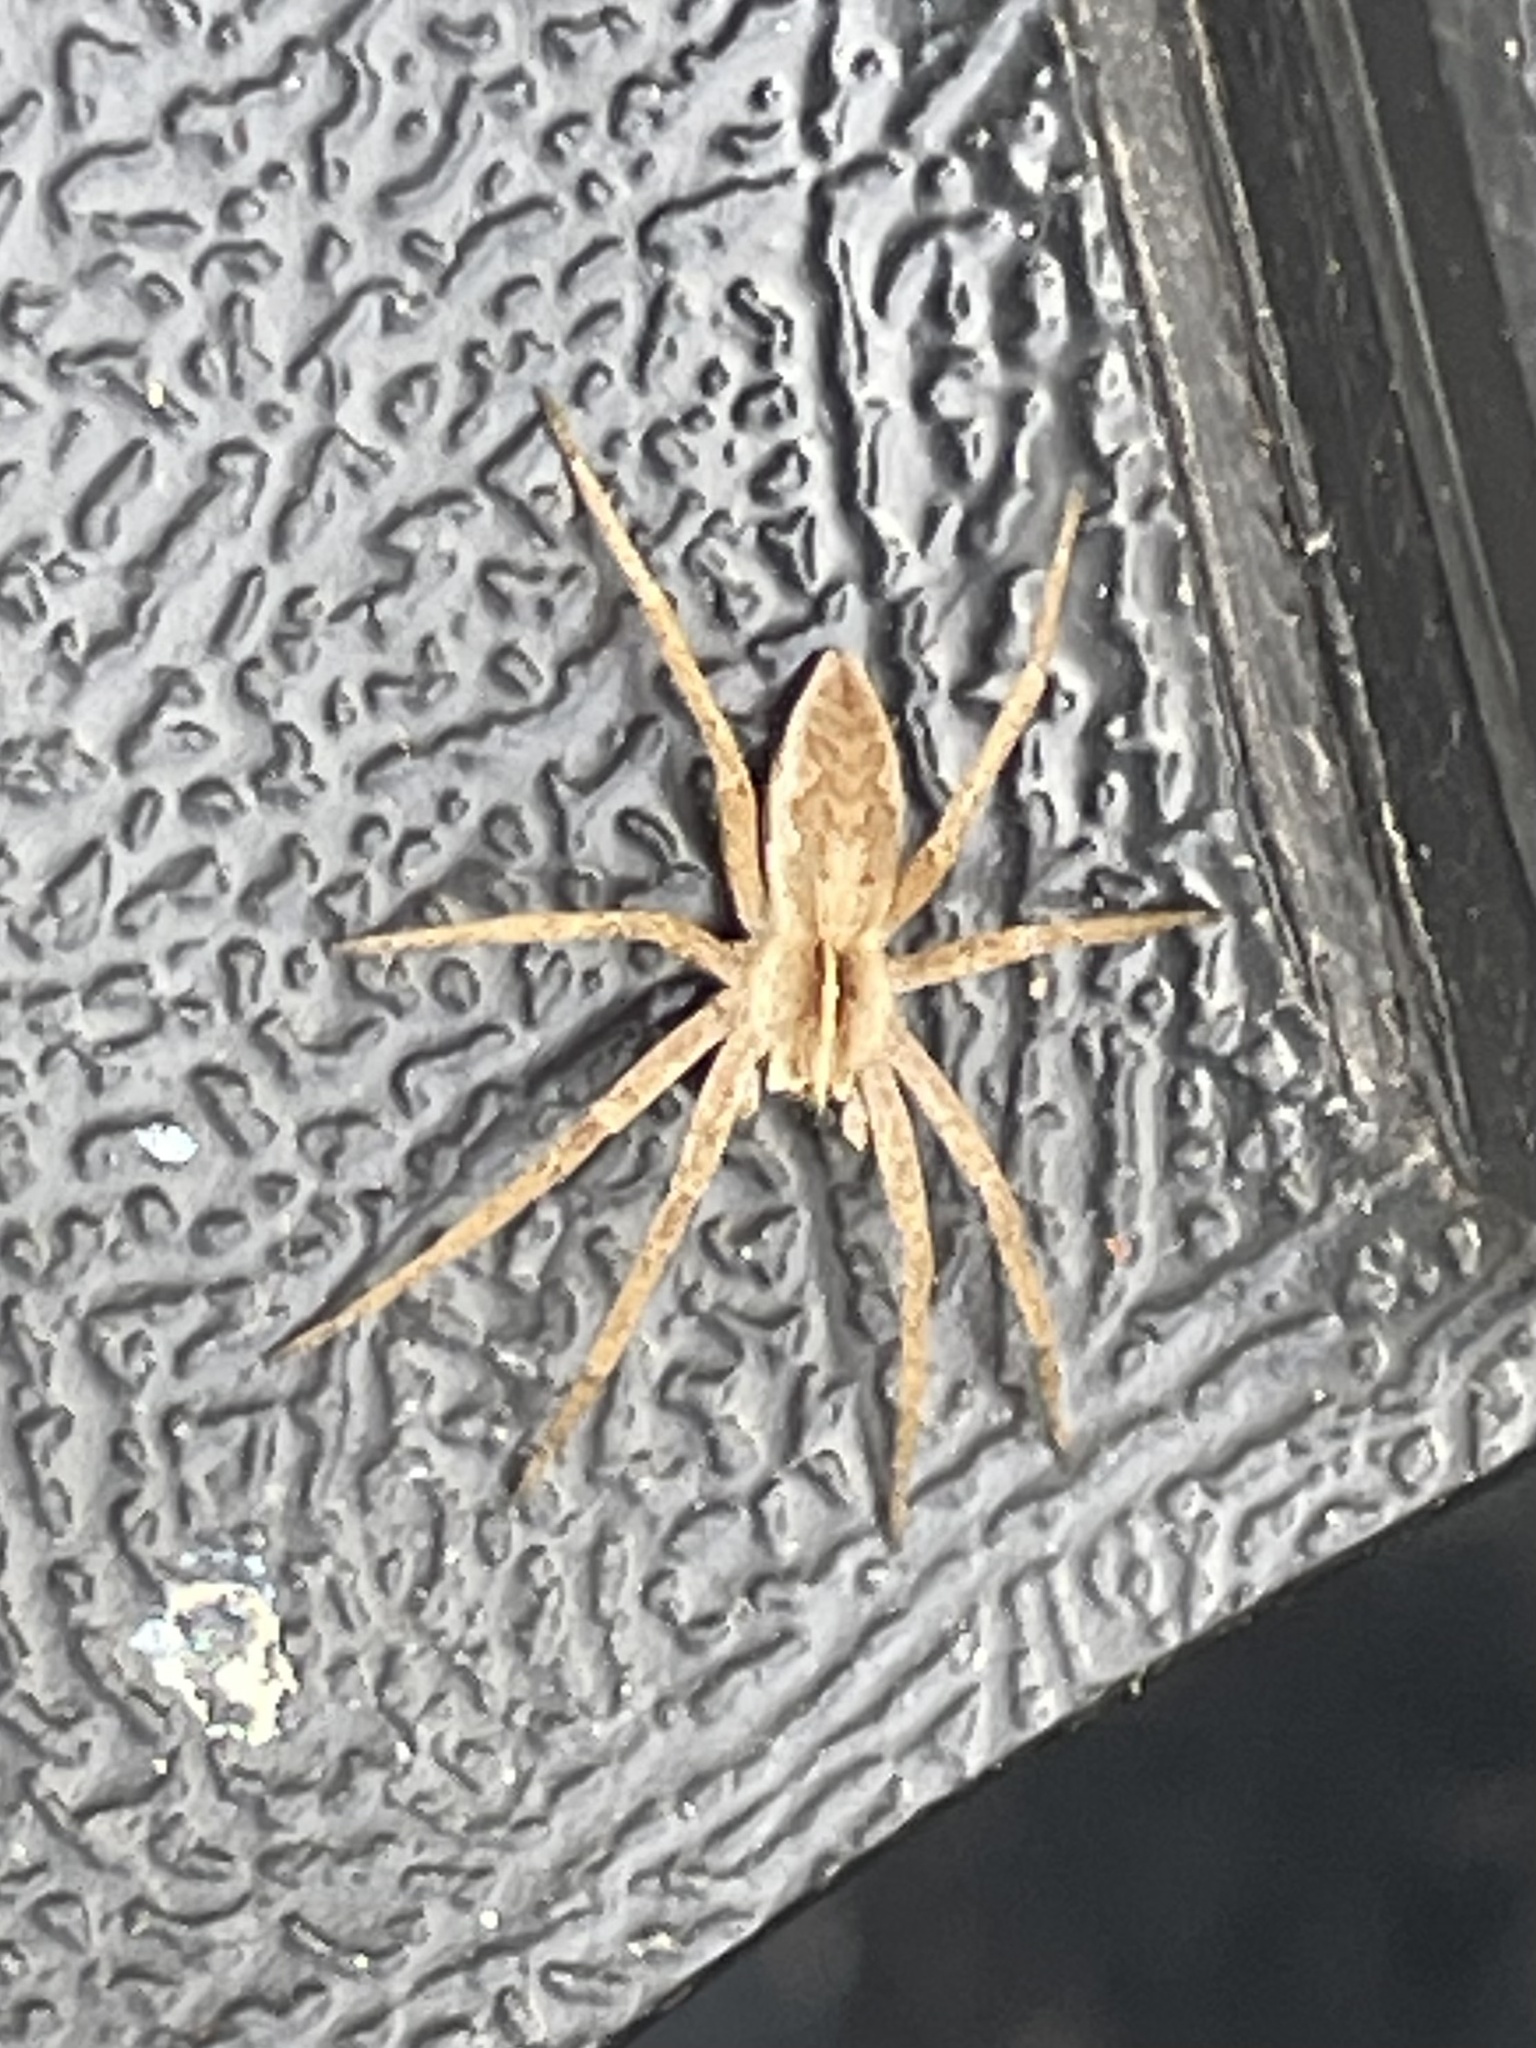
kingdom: Animalia
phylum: Arthropoda
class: Arachnida
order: Araneae
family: Pisauridae
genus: Pisaura
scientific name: Pisaura mirabilis
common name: Tent spider
